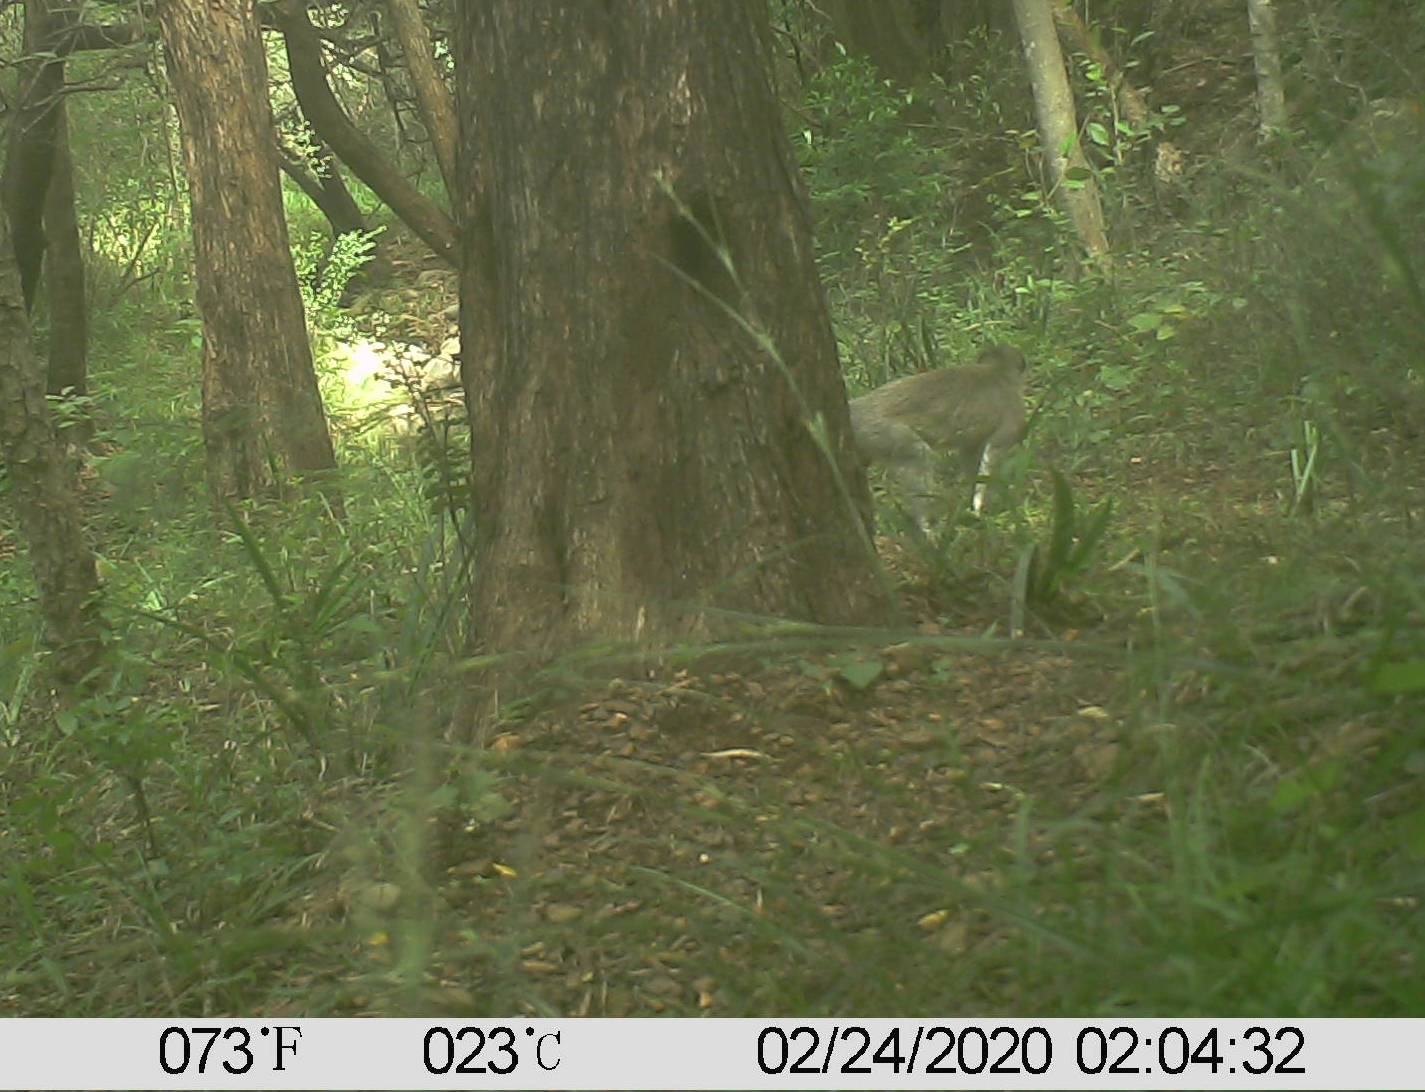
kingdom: Animalia
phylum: Chordata
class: Mammalia
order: Primates
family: Cercopithecidae
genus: Chlorocebus
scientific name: Chlorocebus pygerythrus
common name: Vervet monkey
